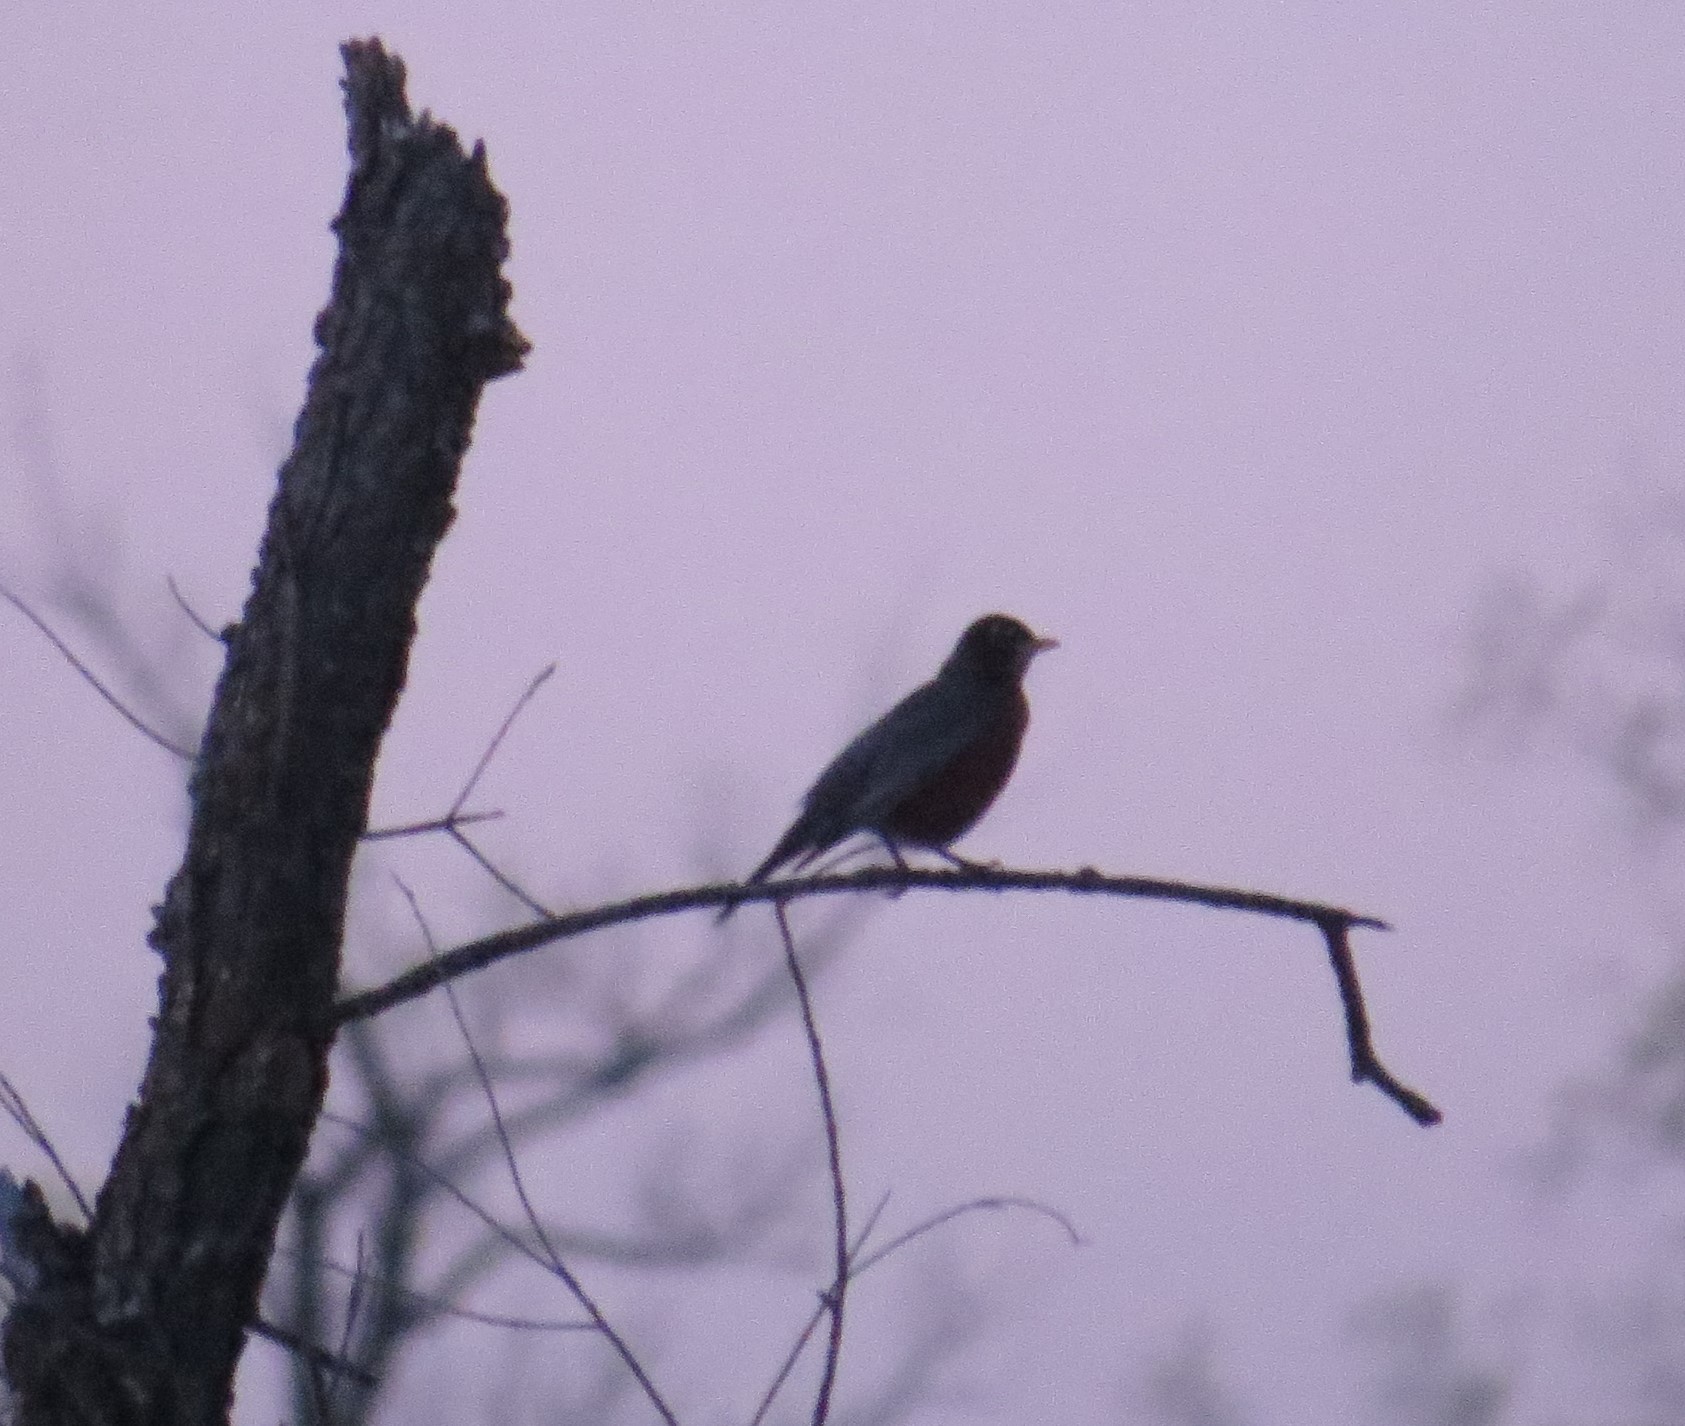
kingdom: Animalia
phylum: Chordata
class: Aves
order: Passeriformes
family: Turdidae
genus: Turdus
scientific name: Turdus migratorius
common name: American robin
